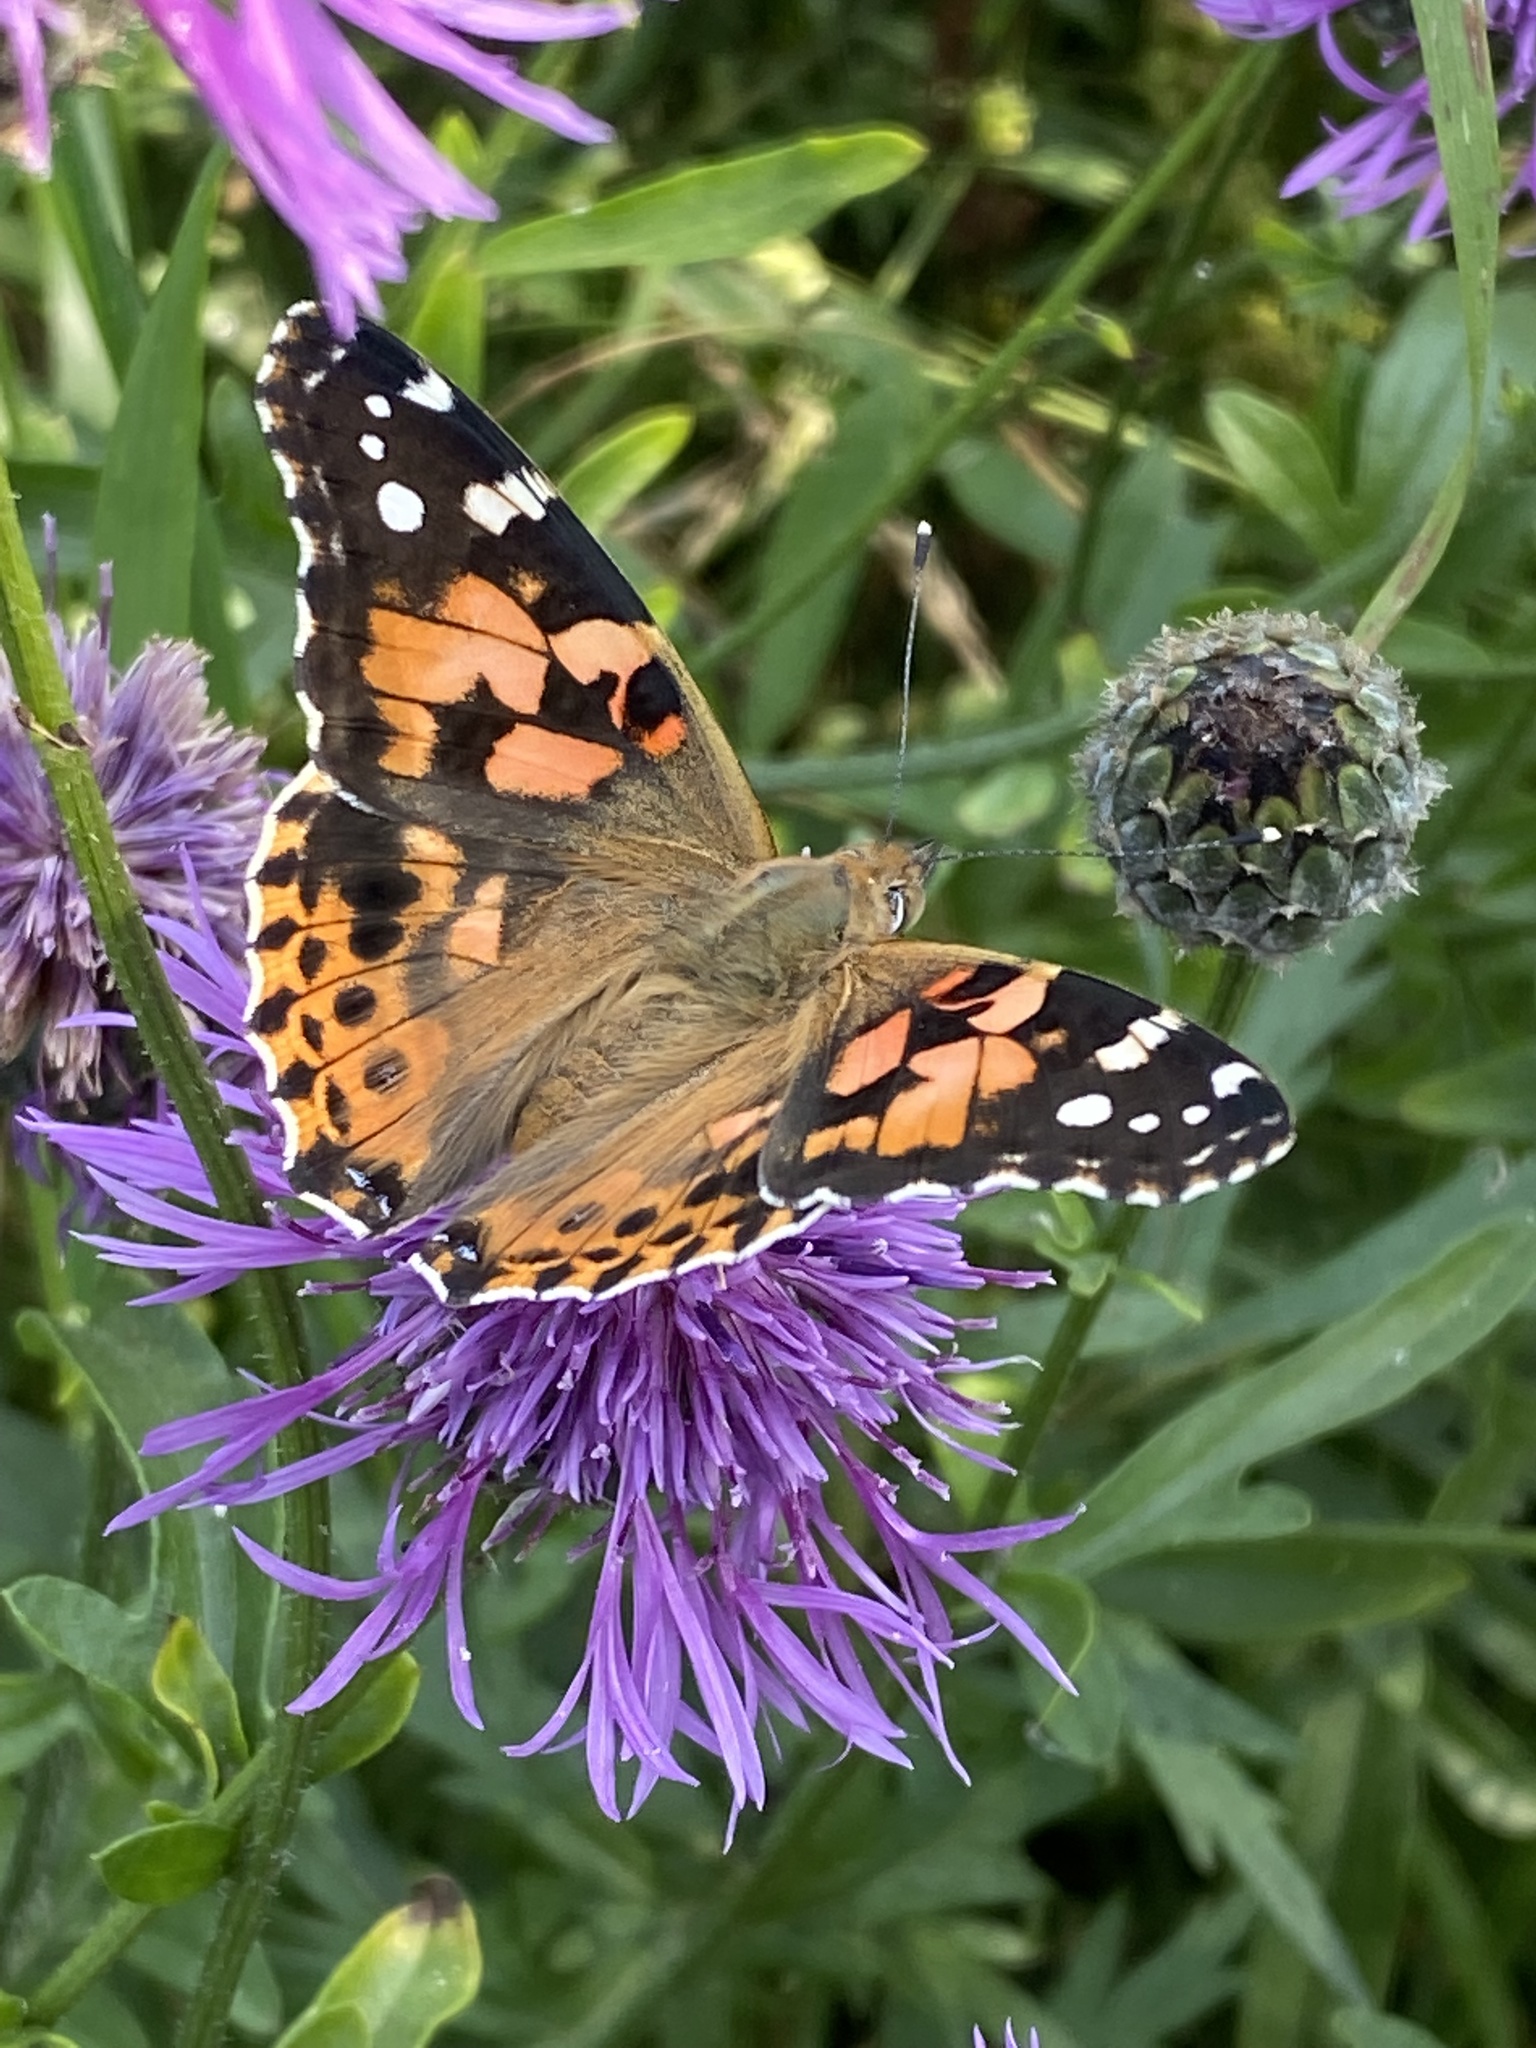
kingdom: Animalia
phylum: Arthropoda
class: Insecta
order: Lepidoptera
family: Nymphalidae
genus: Vanessa
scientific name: Vanessa cardui
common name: Painted lady
